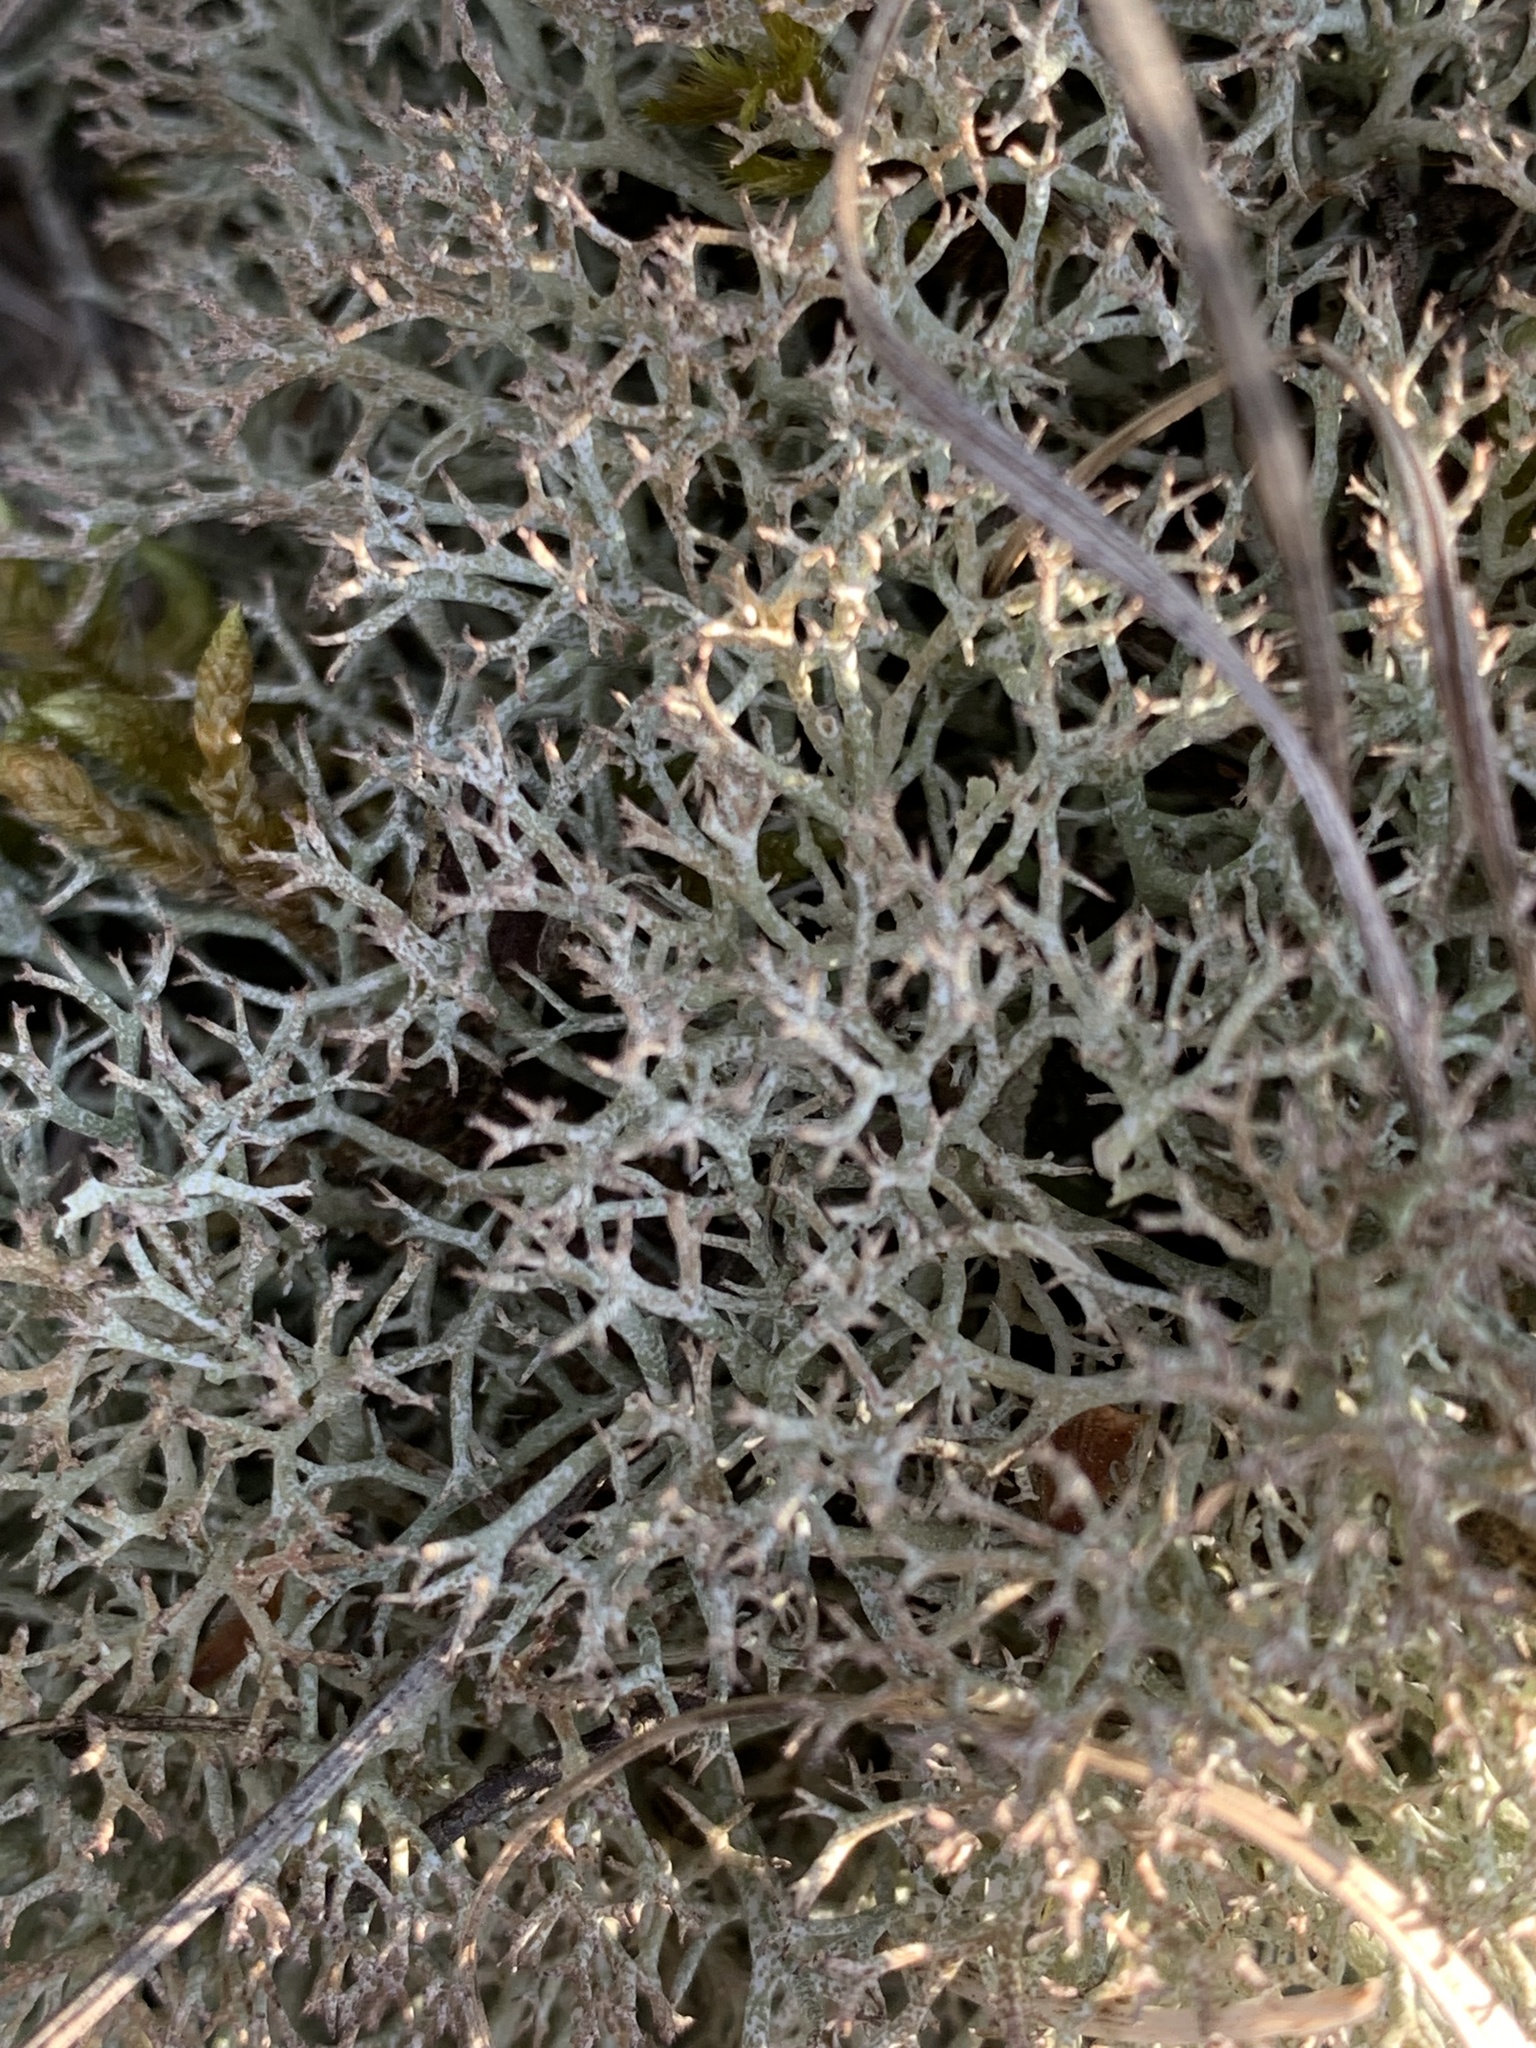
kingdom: Fungi
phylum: Ascomycota
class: Lecanoromycetes
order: Lecanorales
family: Cladoniaceae
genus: Cladonia
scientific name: Cladonia rangiformis
